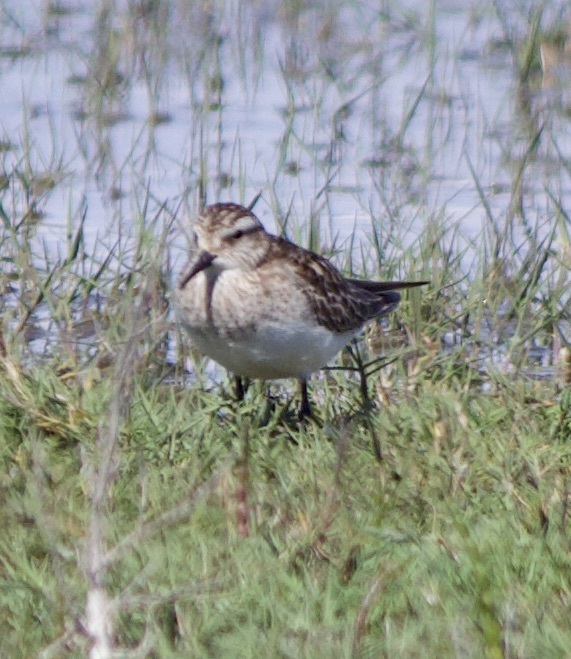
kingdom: Animalia
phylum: Chordata
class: Aves
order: Charadriiformes
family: Scolopacidae
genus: Calidris
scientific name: Calidris bairdii
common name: Baird's sandpiper
